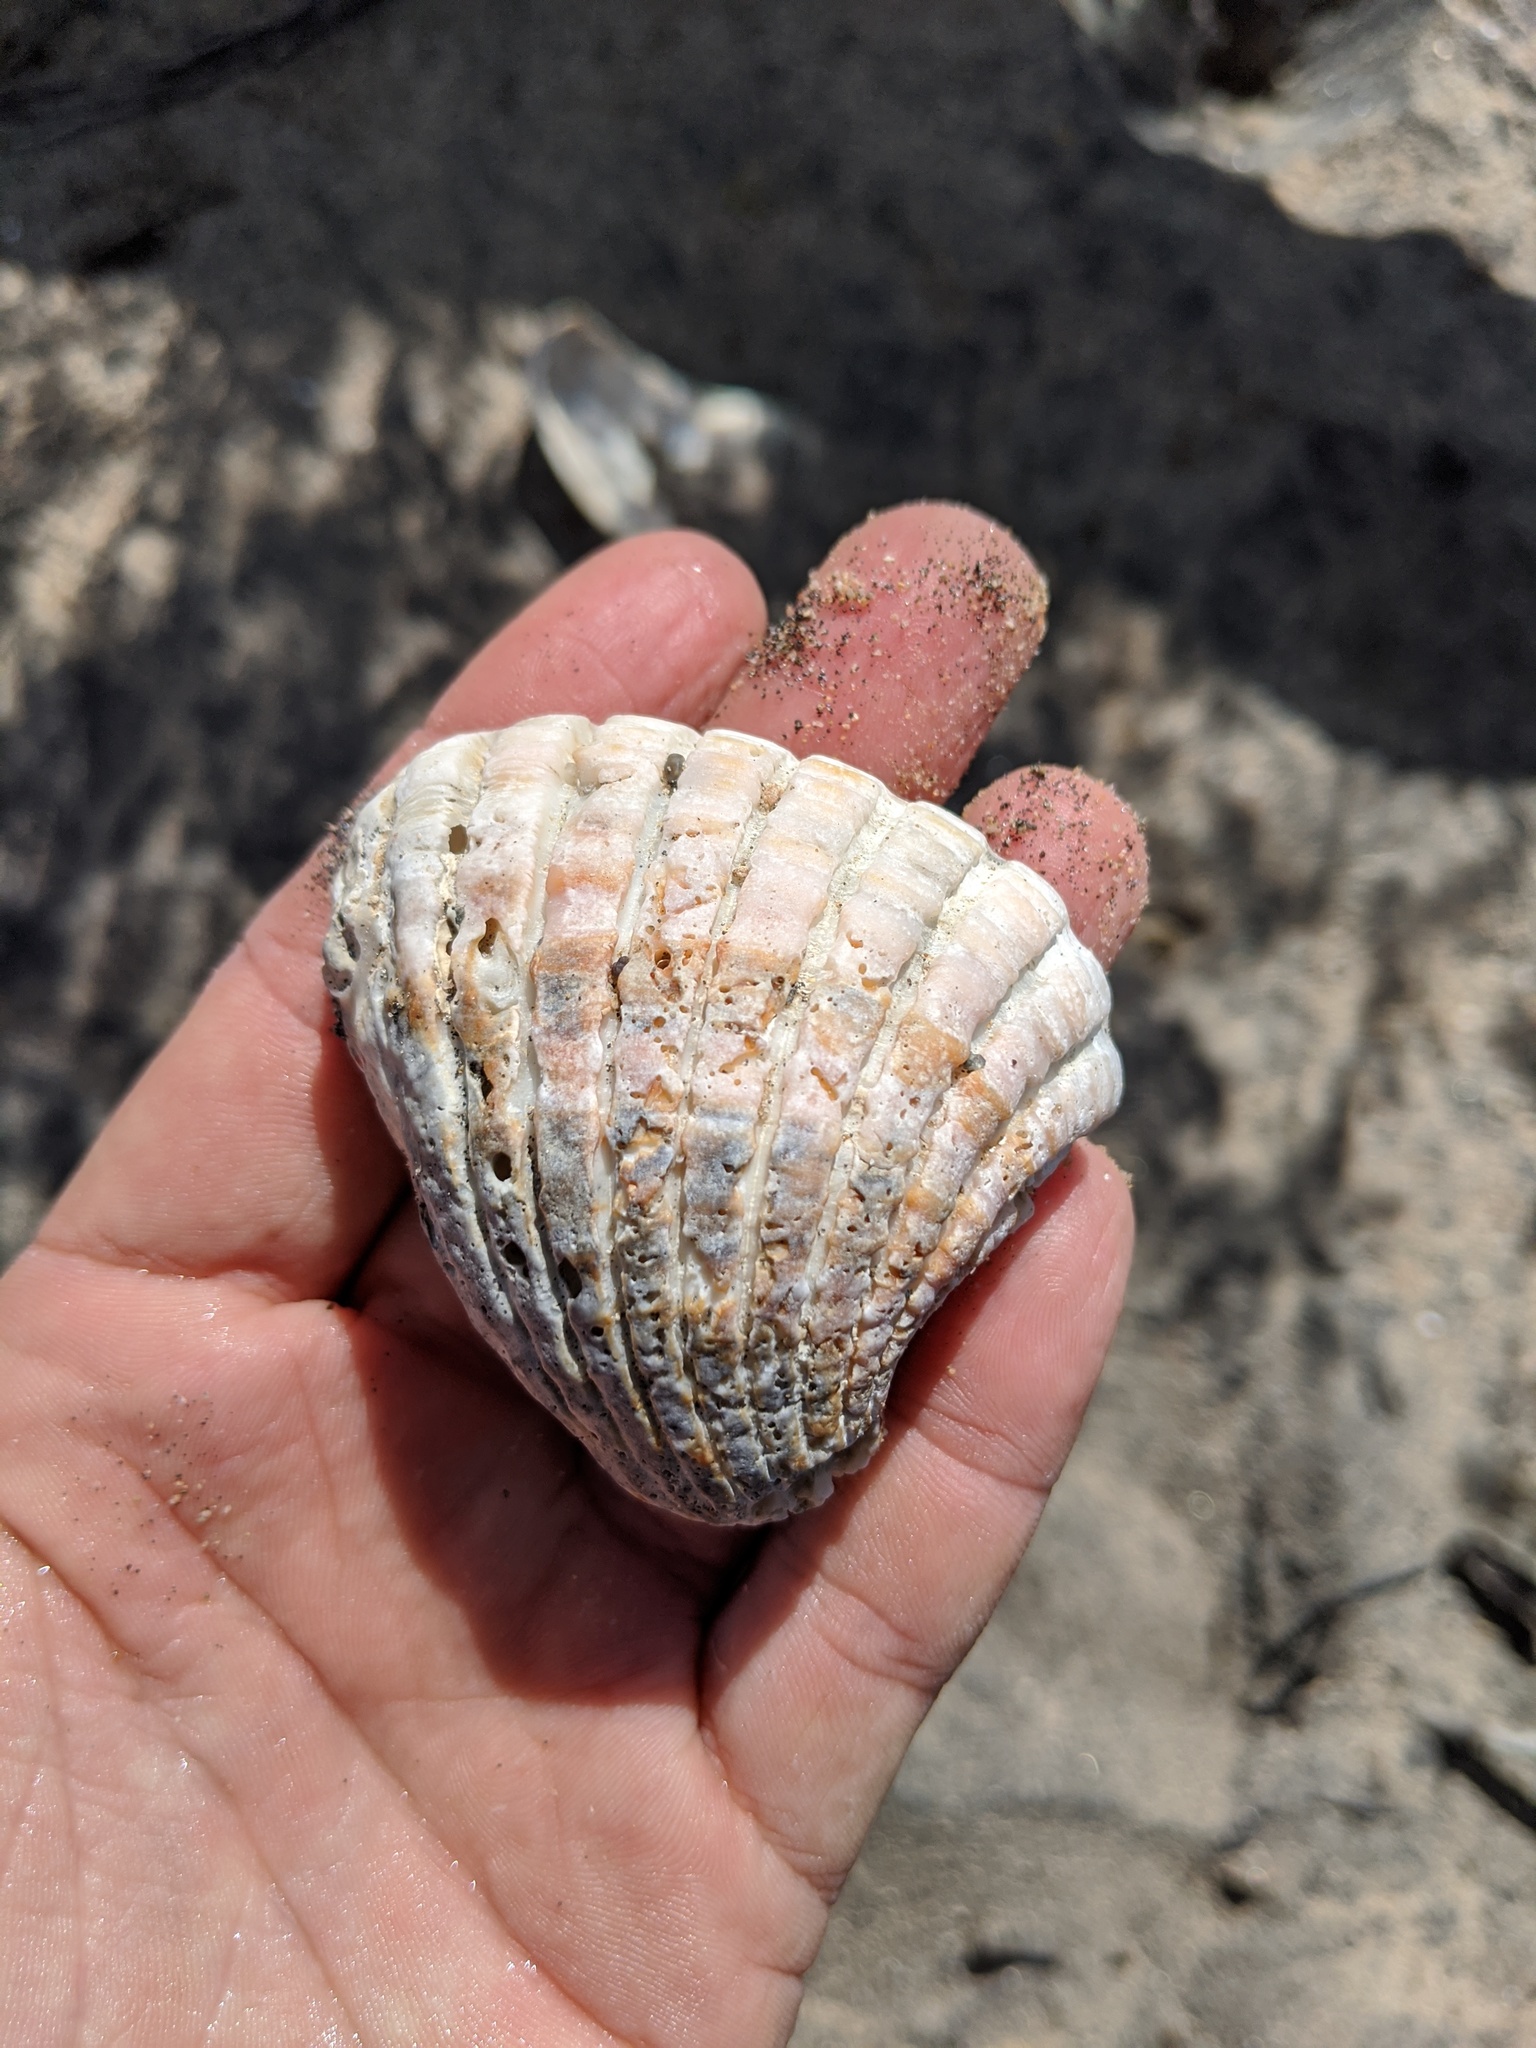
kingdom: Animalia
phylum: Mollusca
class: Bivalvia
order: Carditida
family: Carditidae
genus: Cardites
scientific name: Cardites crassicostatus
